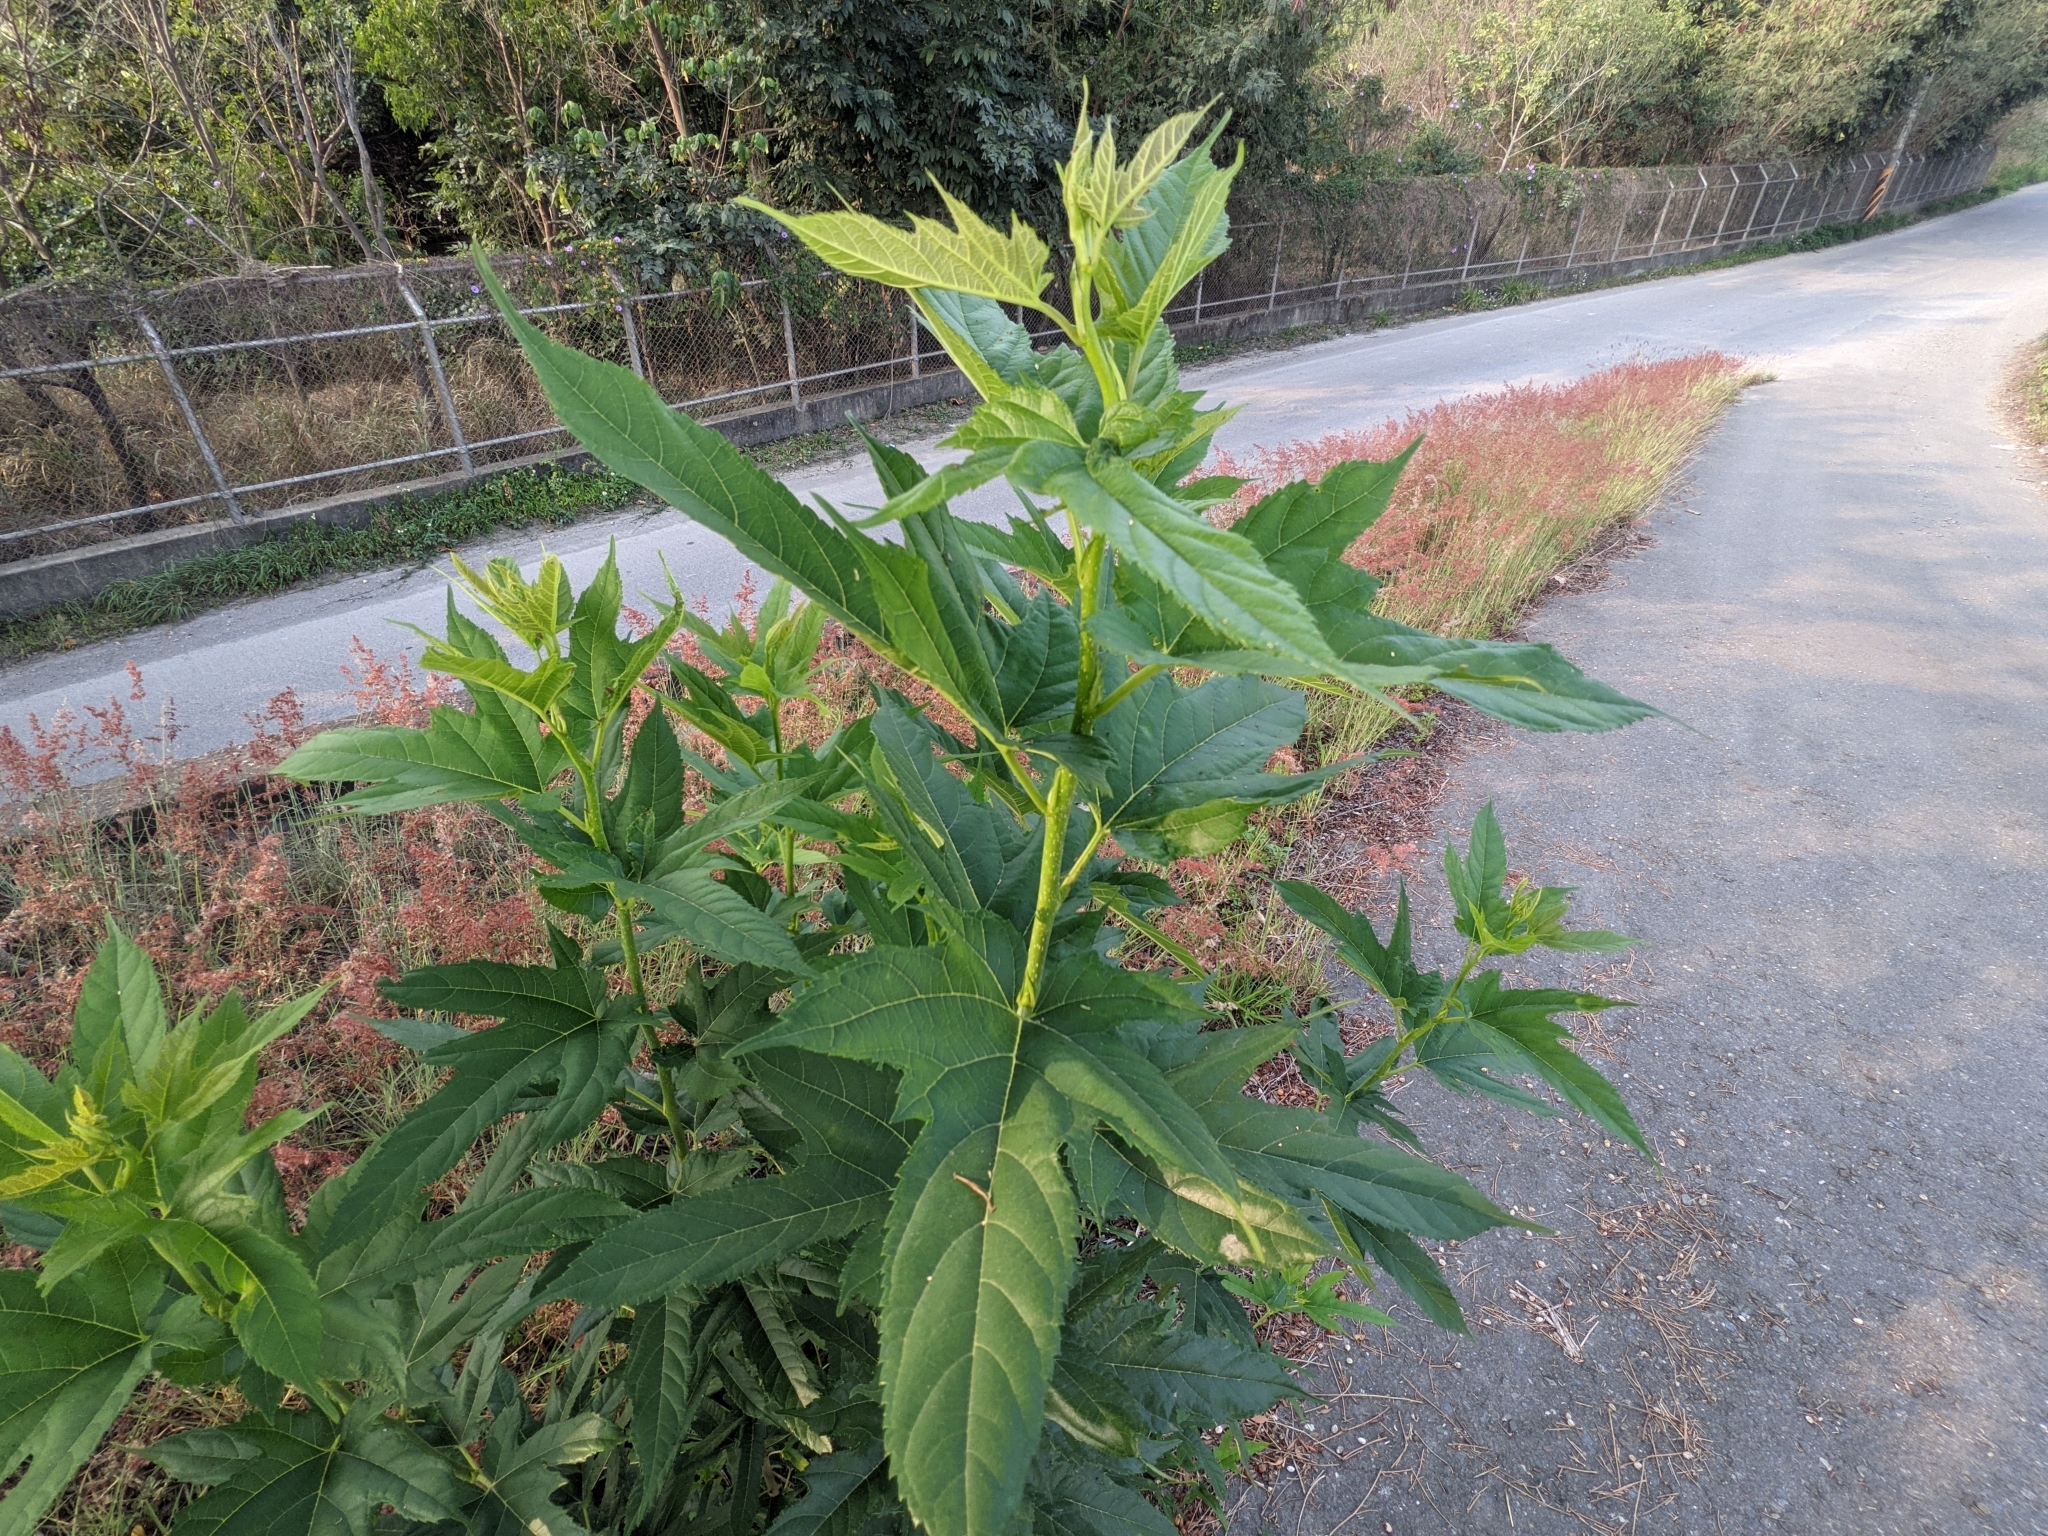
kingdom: Plantae
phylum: Tracheophyta
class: Magnoliopsida
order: Rosales
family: Moraceae
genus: Morus
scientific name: Morus indica
